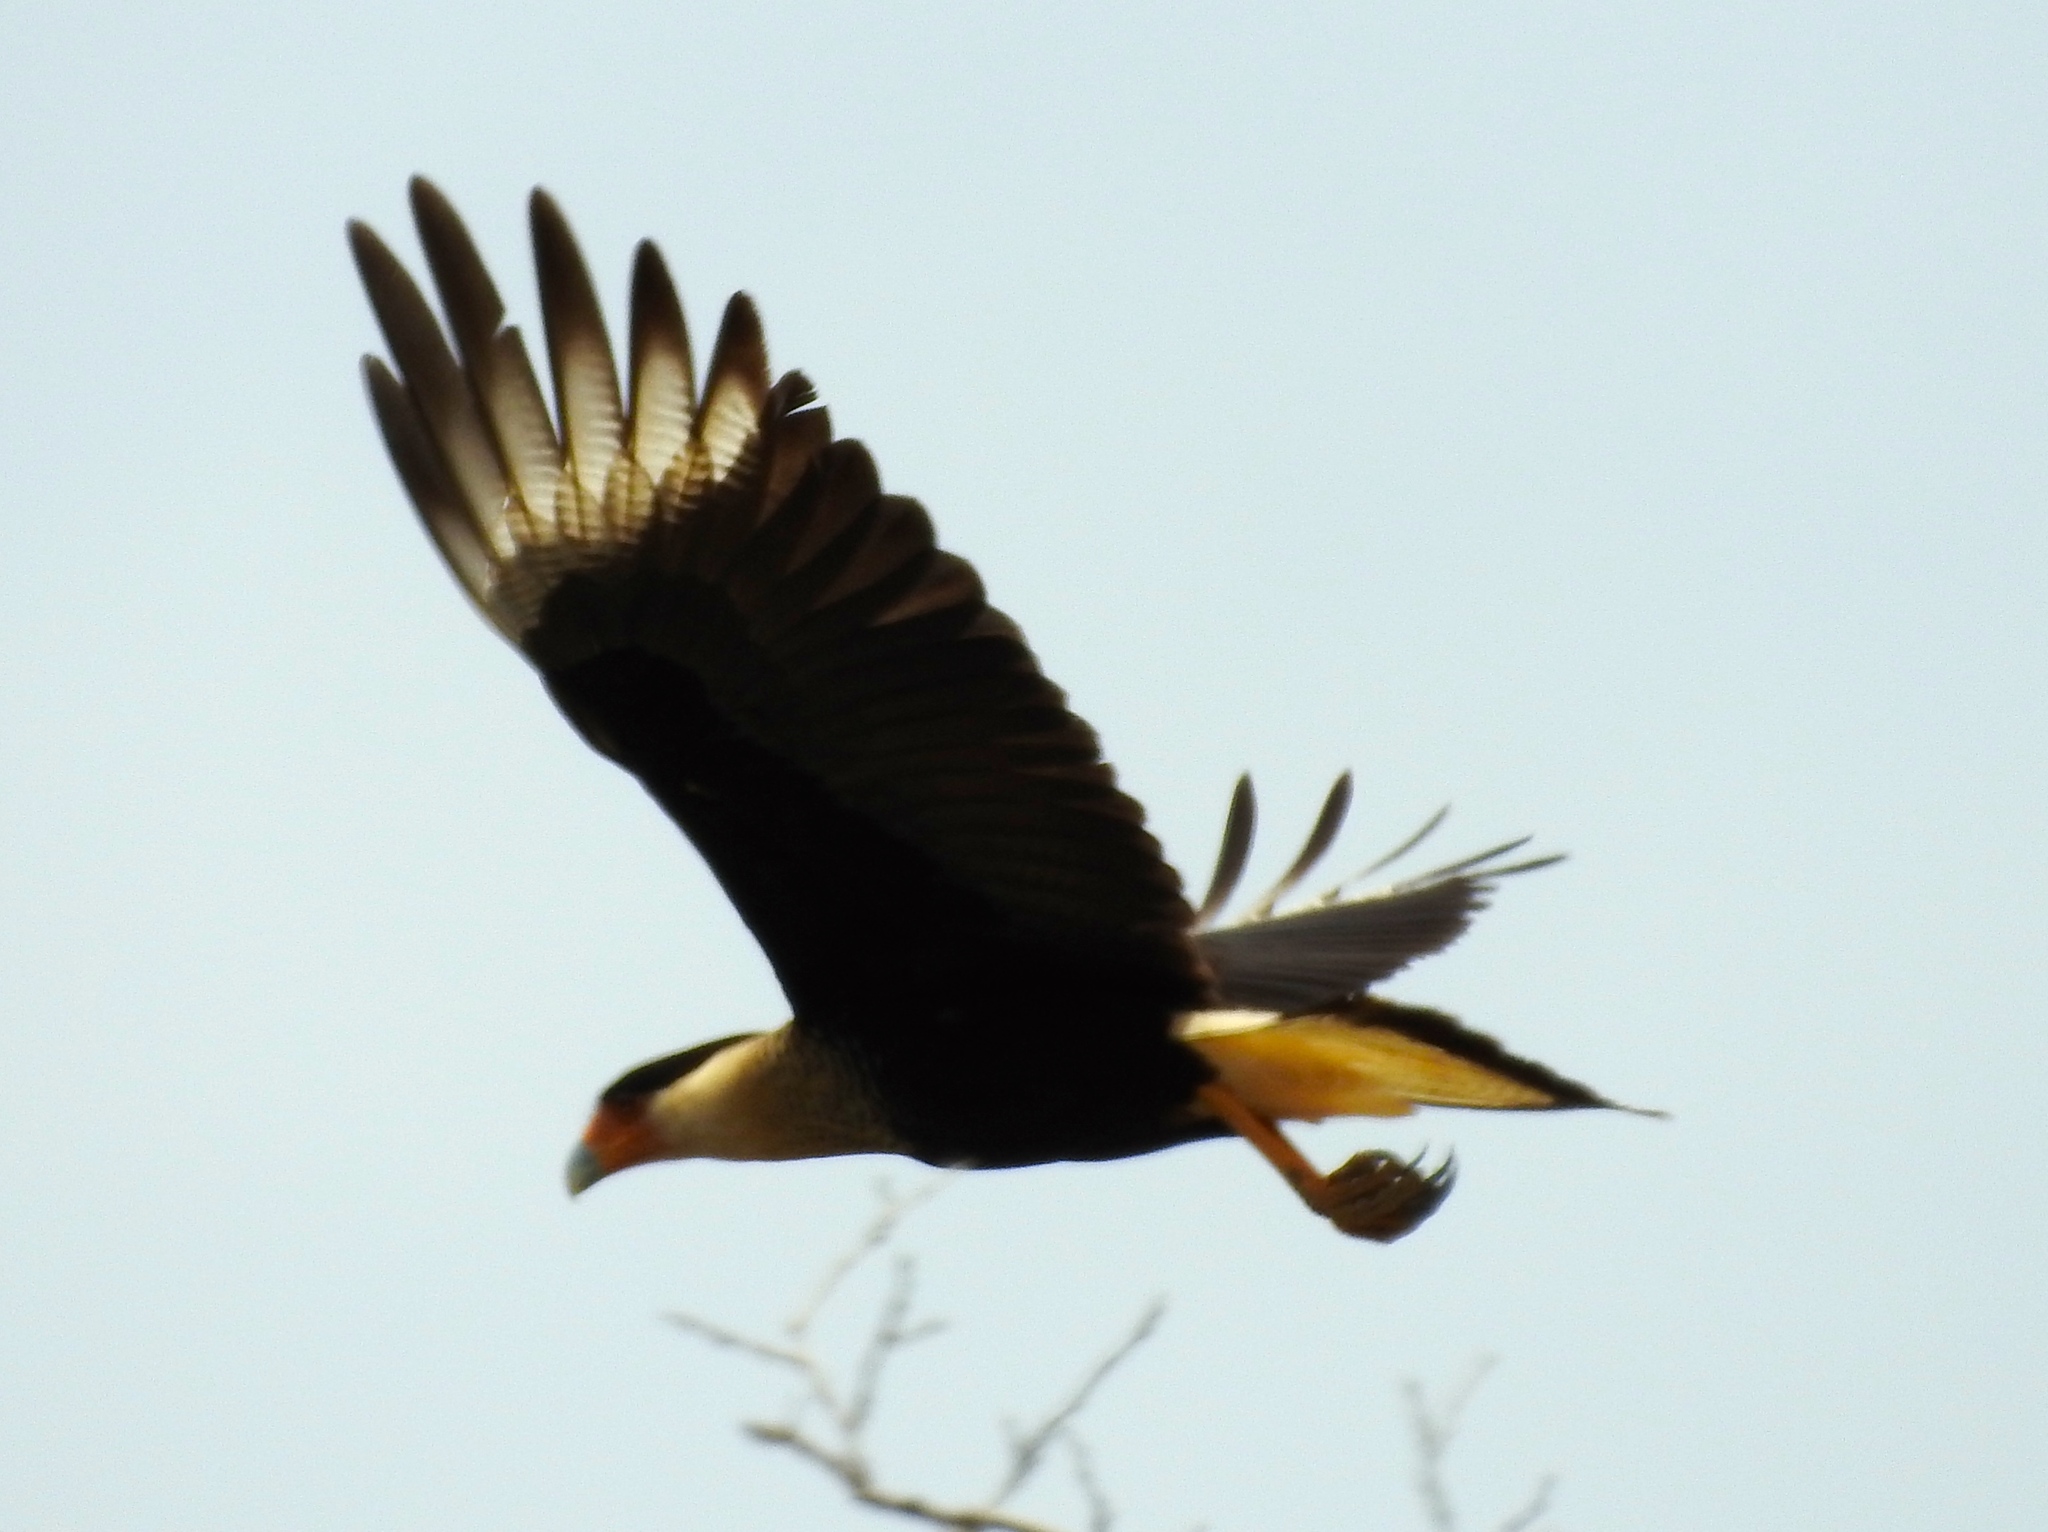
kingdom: Animalia
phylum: Chordata
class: Aves
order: Falconiformes
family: Falconidae
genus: Caracara
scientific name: Caracara plancus
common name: Southern caracara
